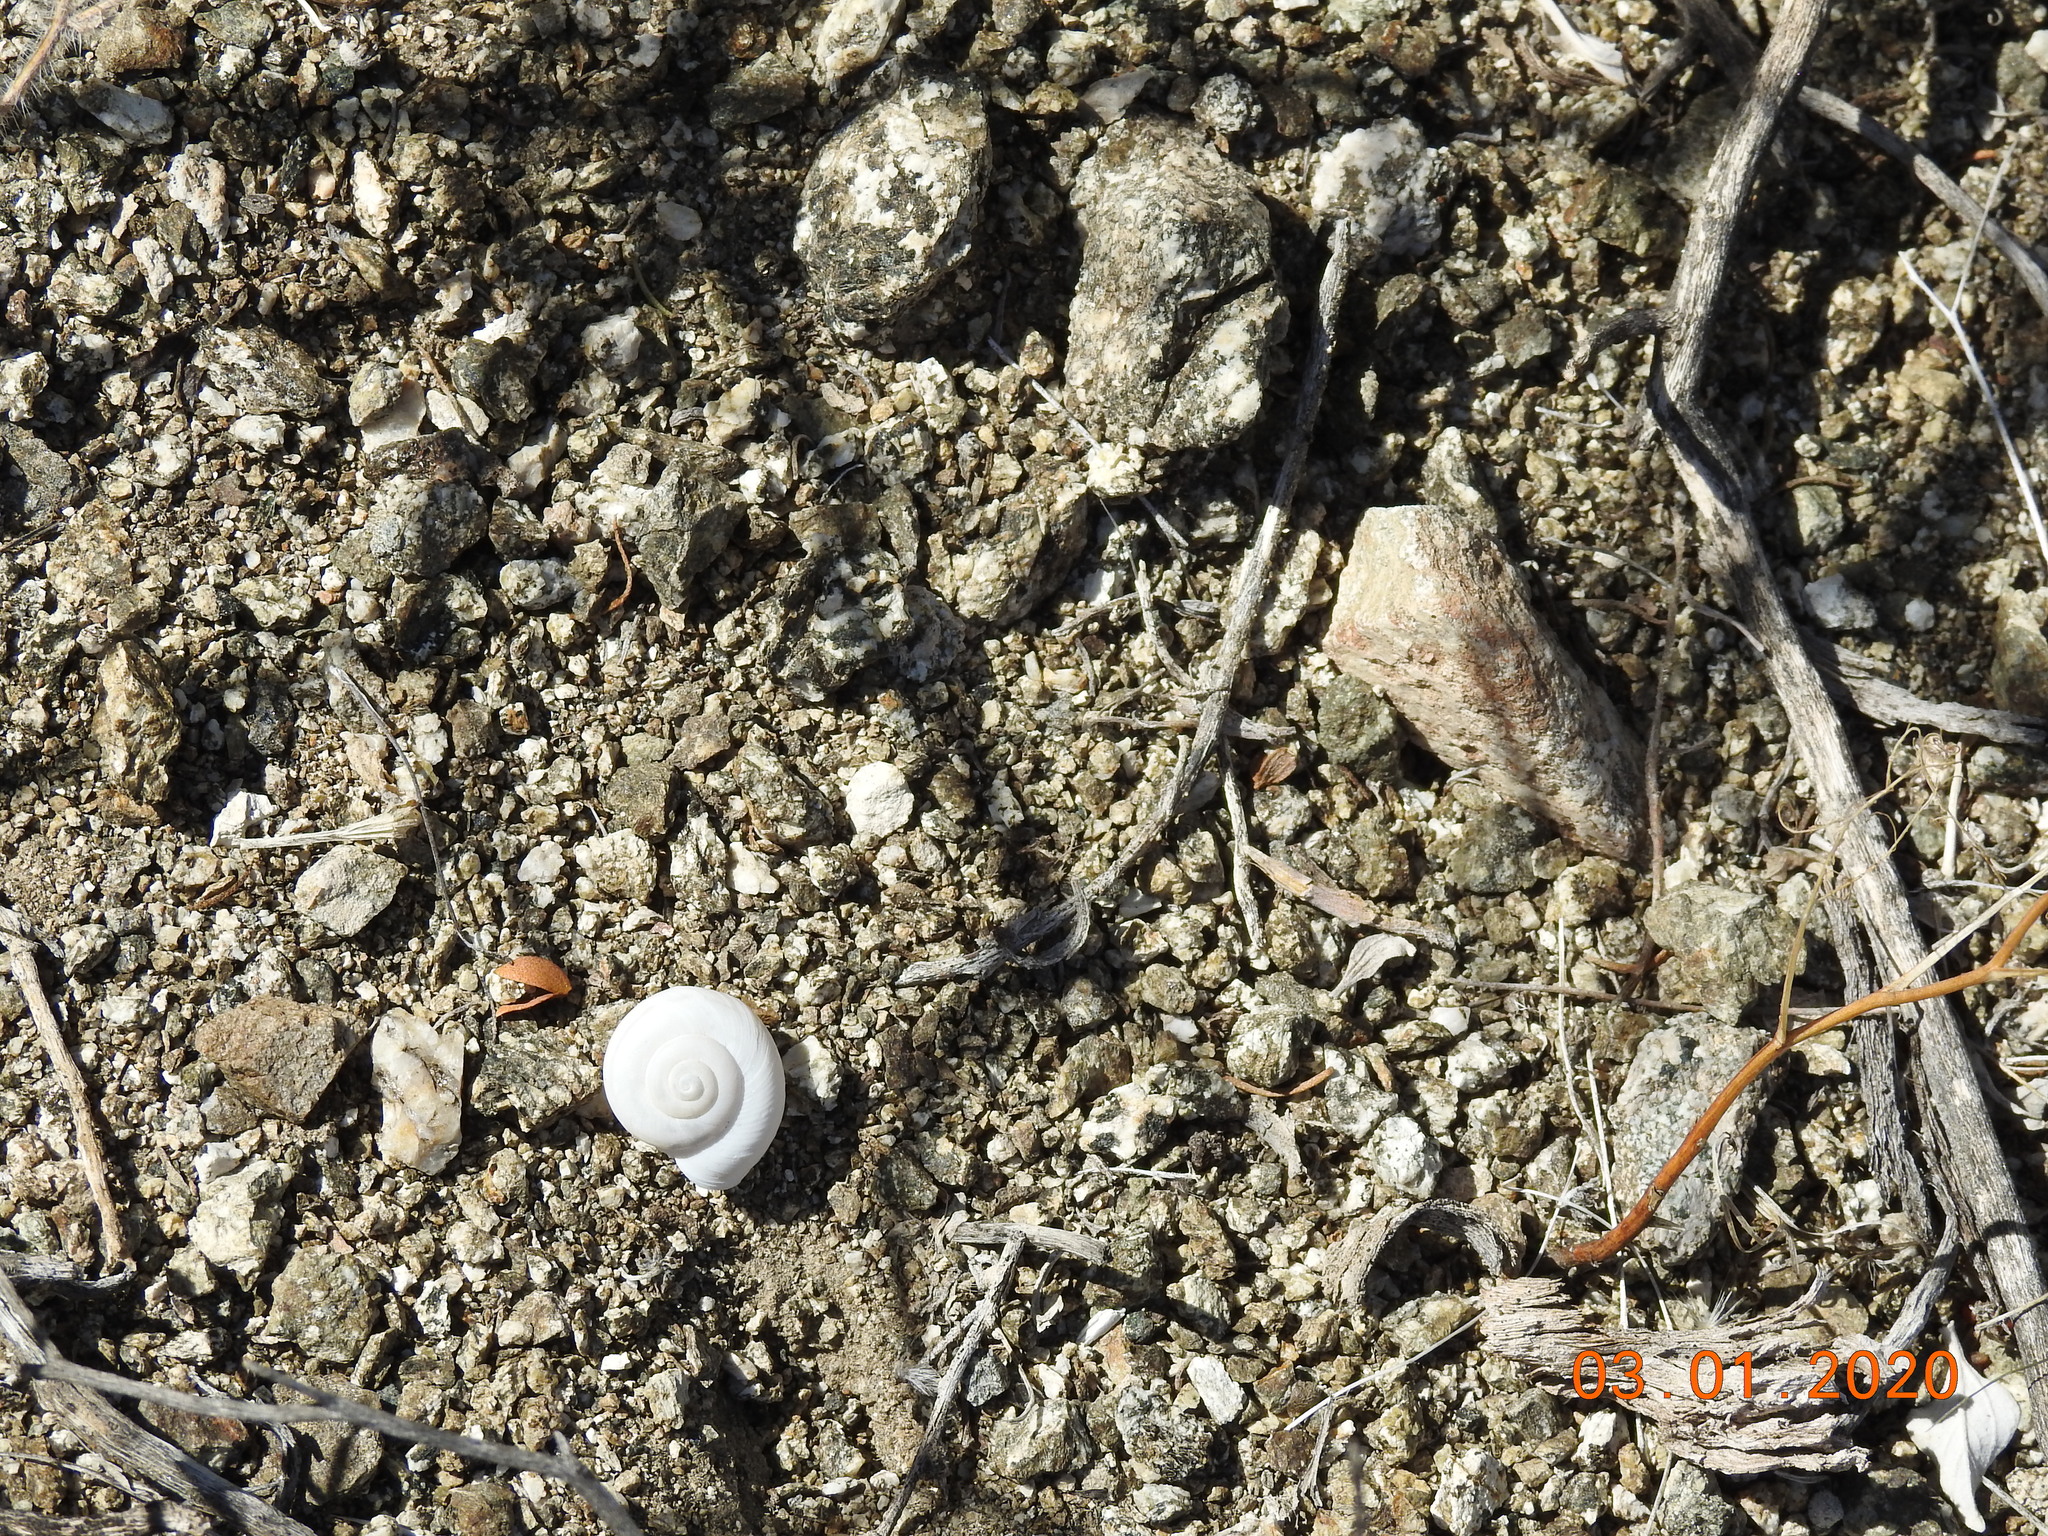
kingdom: Animalia
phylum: Mollusca
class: Gastropoda
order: Stylommatophora
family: Xanthonychidae
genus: Cahuillus
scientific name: Cahuillus indioensis
